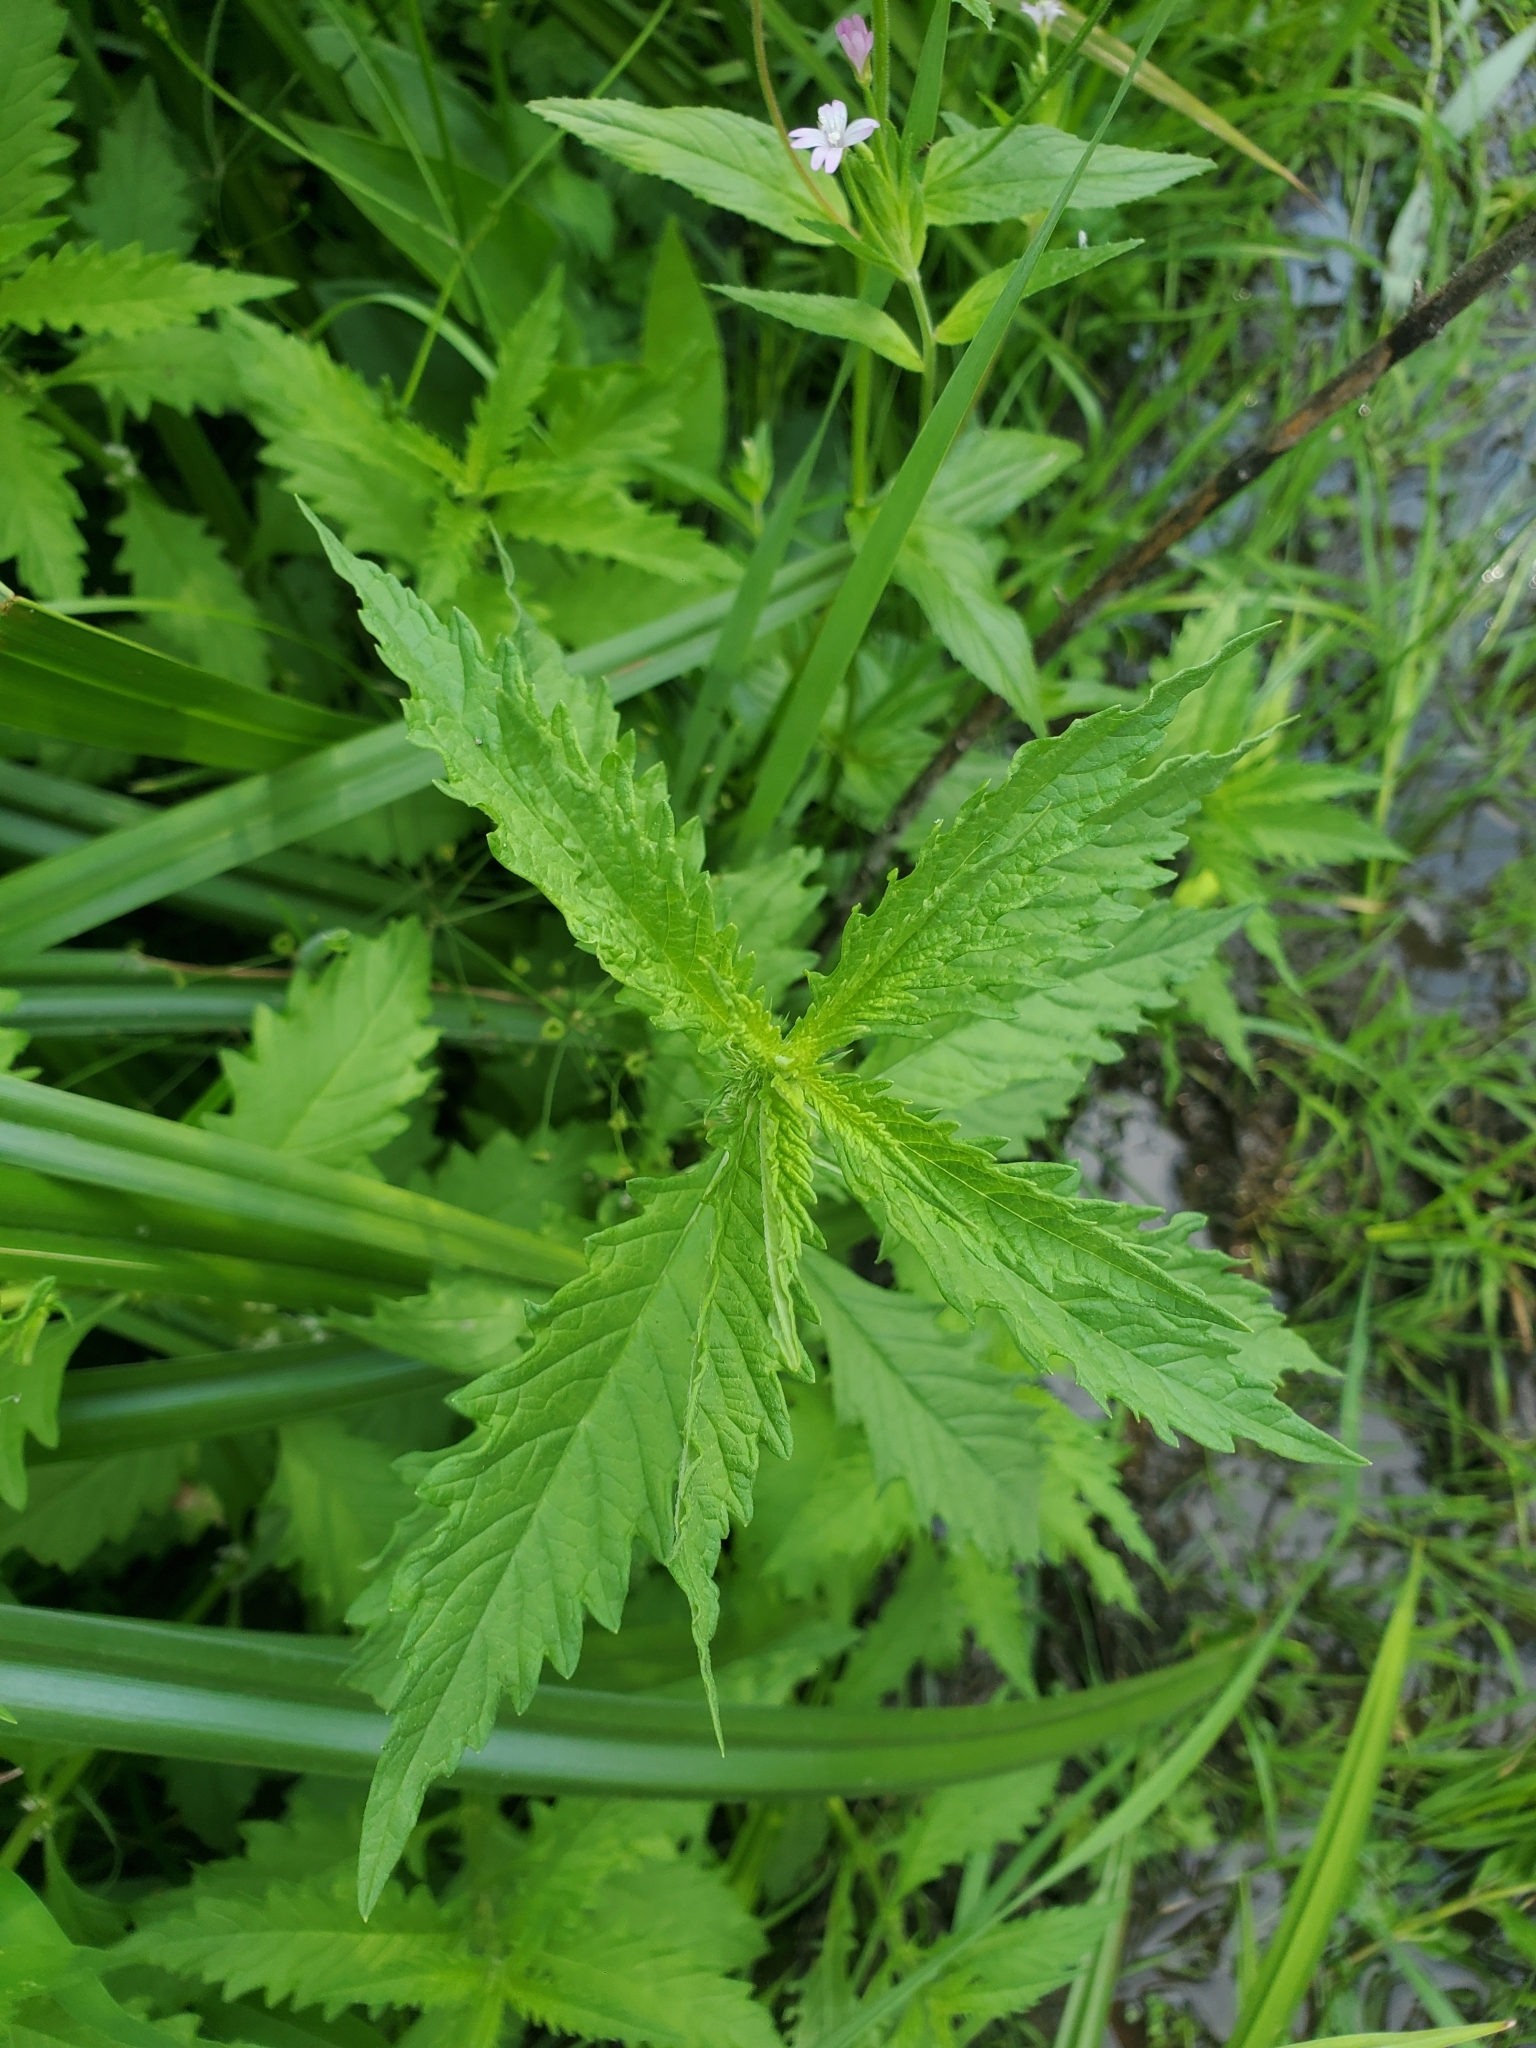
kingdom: Plantae
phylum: Tracheophyta
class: Magnoliopsida
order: Lamiales
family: Lamiaceae
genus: Lycopus
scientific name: Lycopus europaeus
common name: European bugleweed
